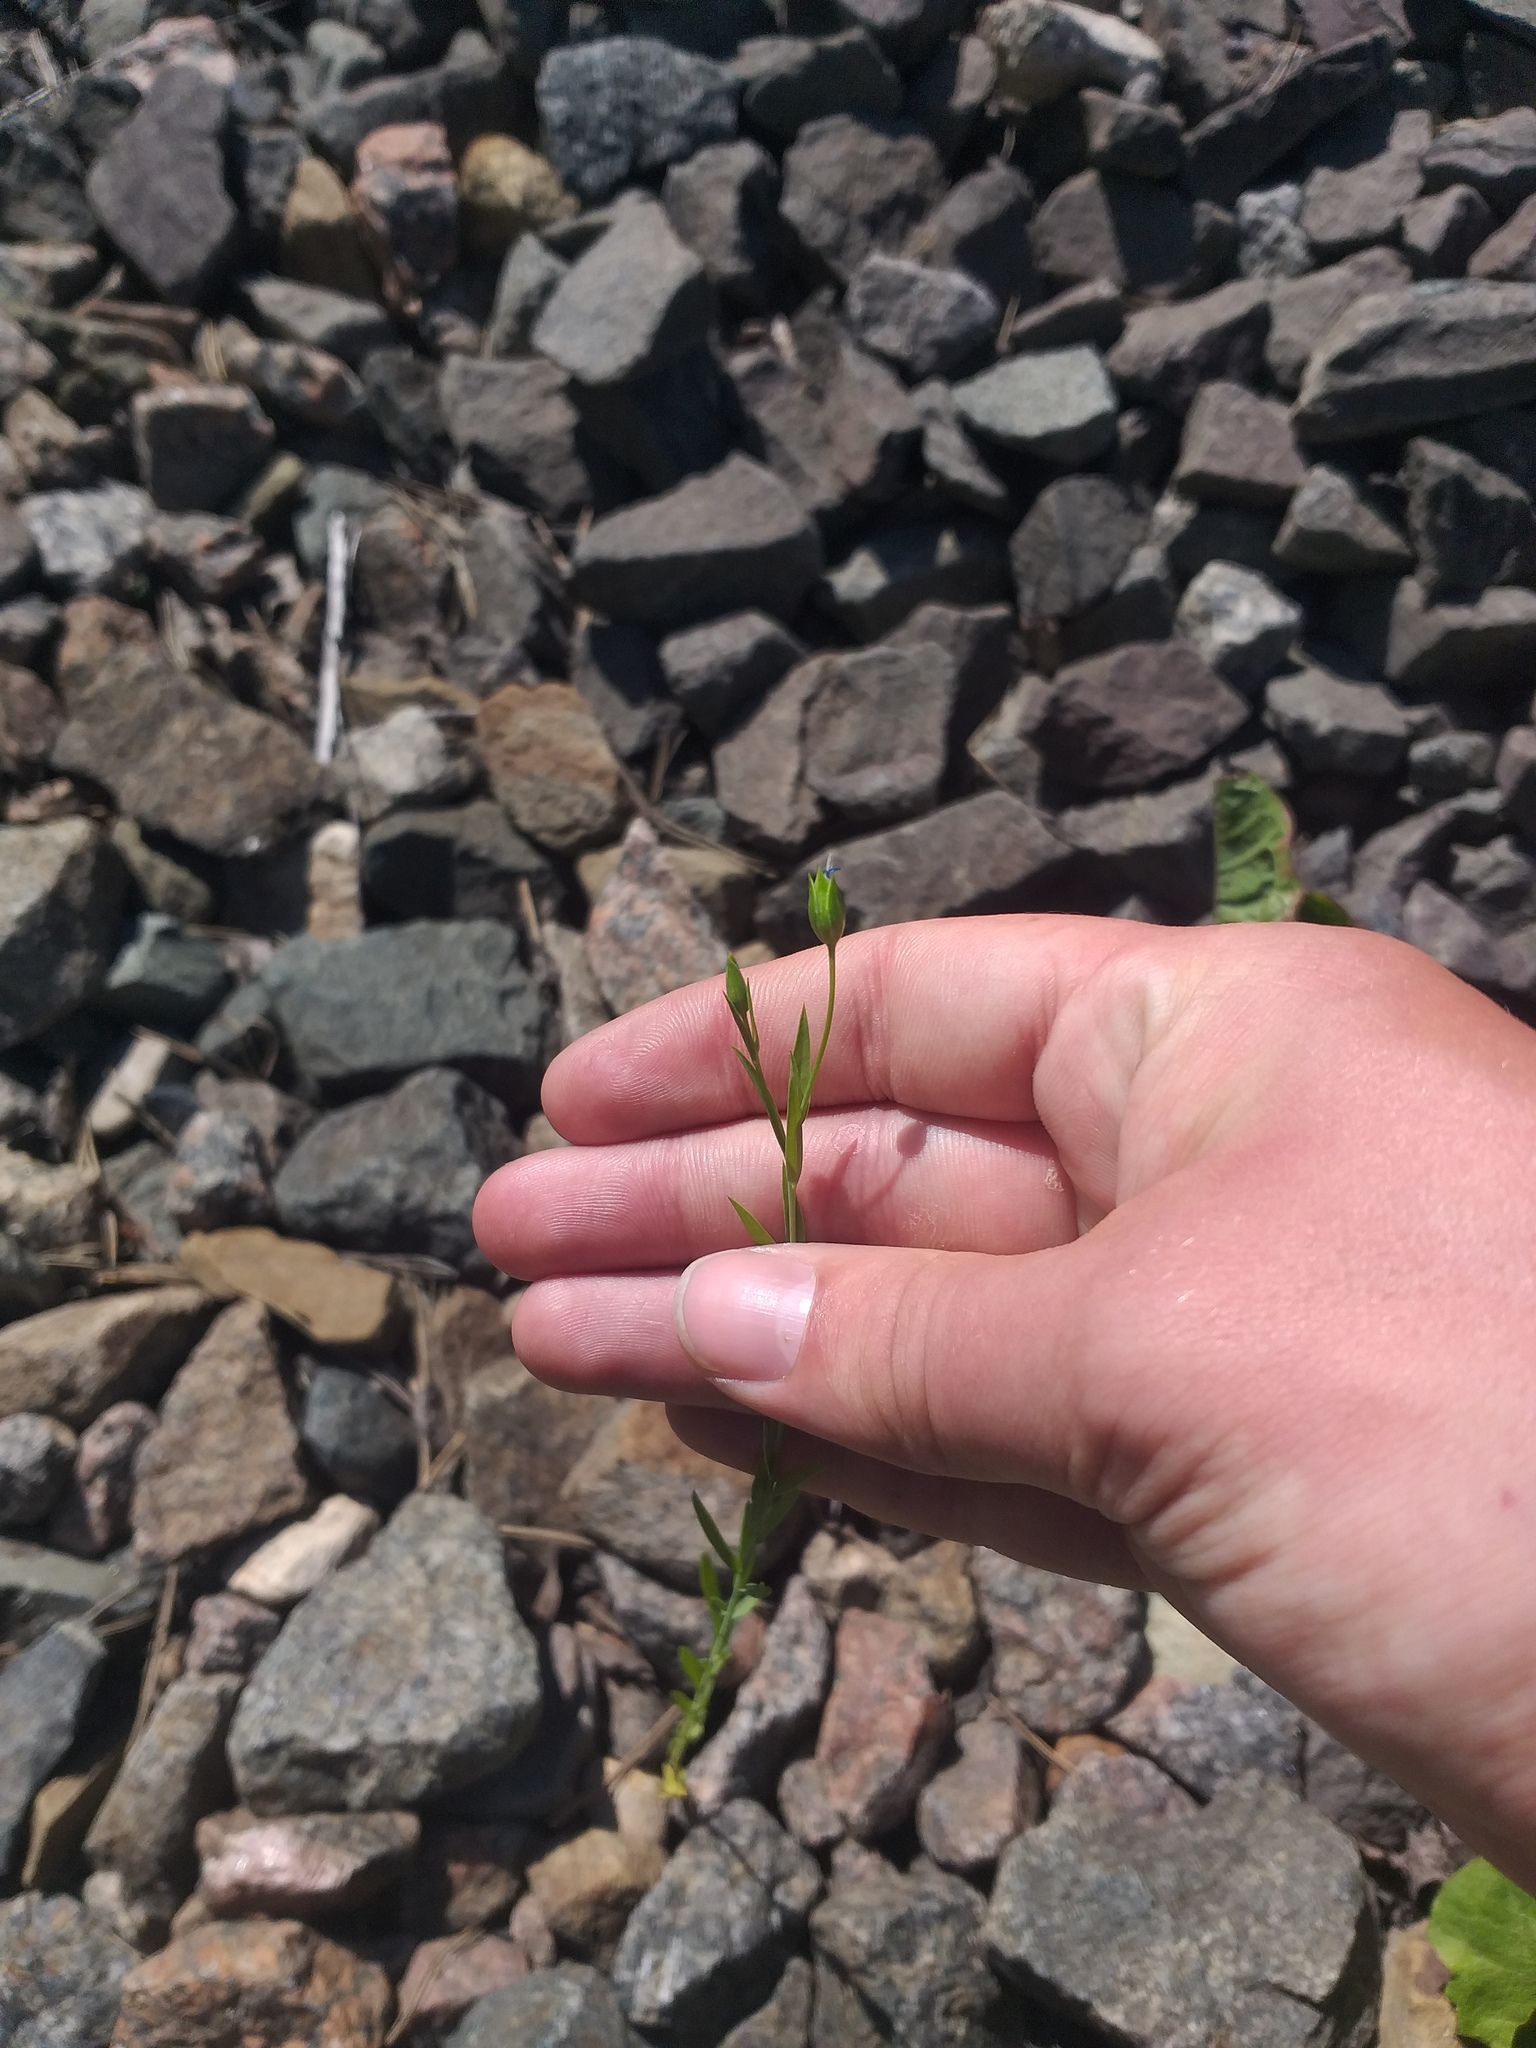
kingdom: Plantae
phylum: Tracheophyta
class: Magnoliopsida
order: Malpighiales
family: Linaceae
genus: Linum
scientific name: Linum usitatissimum
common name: Flax
